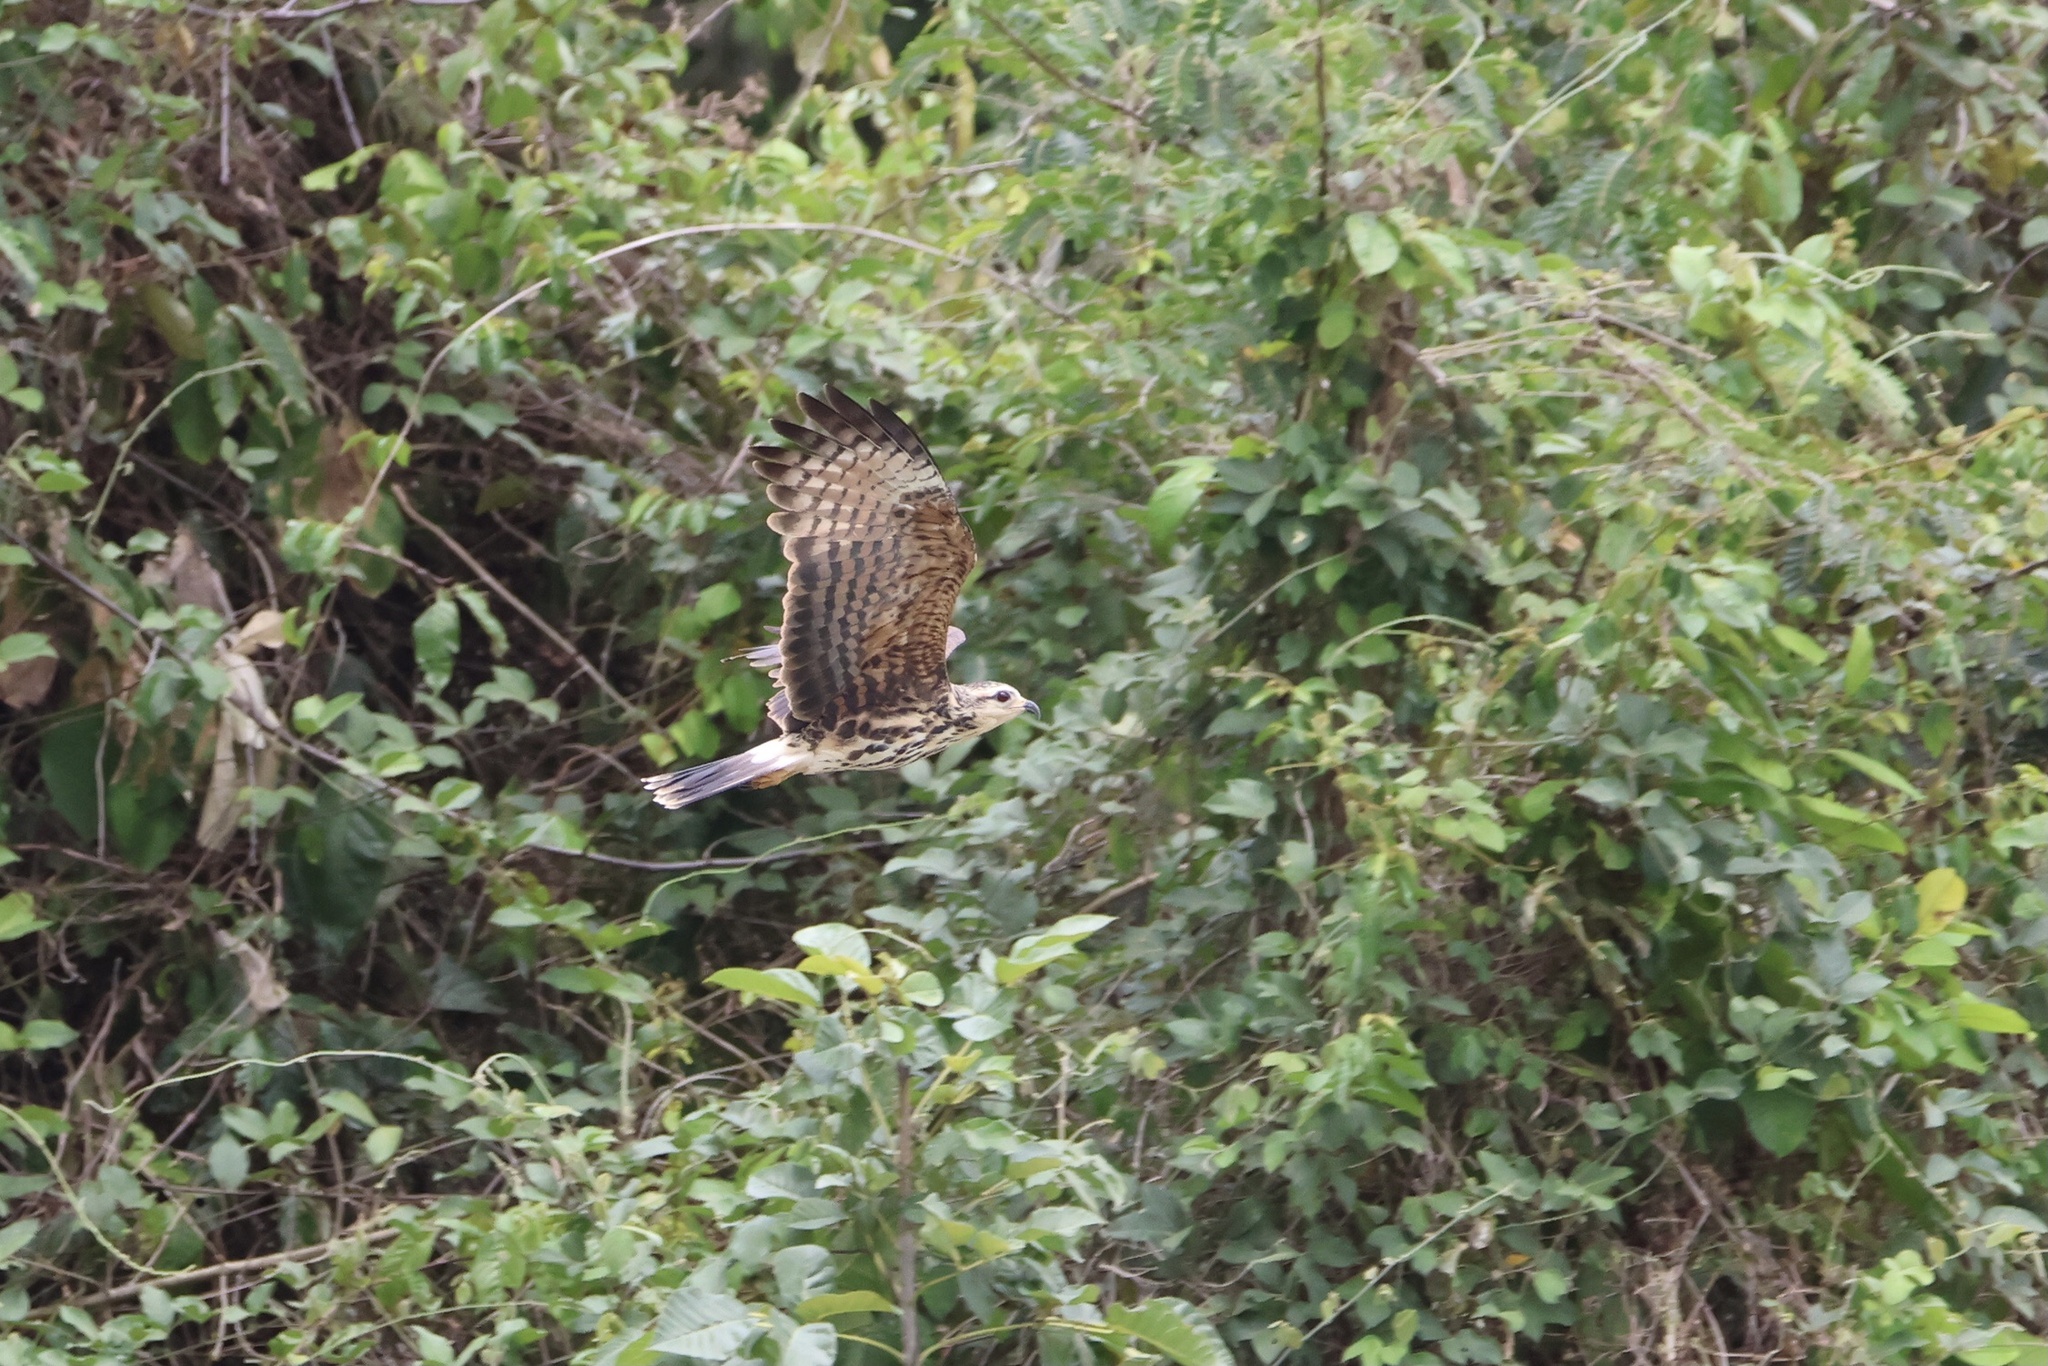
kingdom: Animalia
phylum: Chordata
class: Aves
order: Accipitriformes
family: Accipitridae
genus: Rostrhamus
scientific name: Rostrhamus sociabilis
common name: Snail kite
